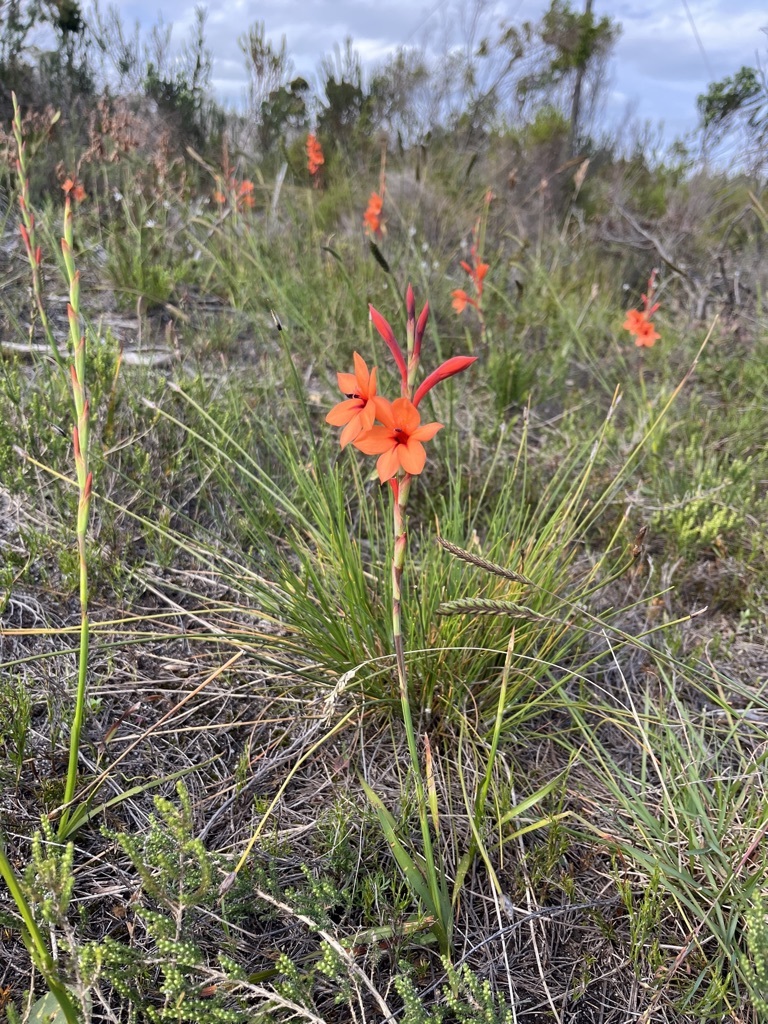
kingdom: Plantae
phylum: Tracheophyta
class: Liliopsida
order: Asparagales
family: Iridaceae
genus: Watsonia
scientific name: Watsonia stenosiphon
